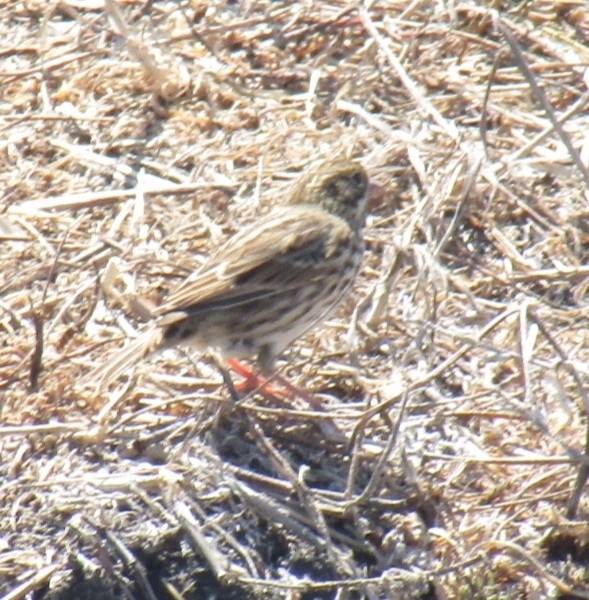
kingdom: Animalia
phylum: Chordata
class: Aves
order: Passeriformes
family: Passerellidae
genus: Passerculus
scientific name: Passerculus sandwichensis
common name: Savannah sparrow
